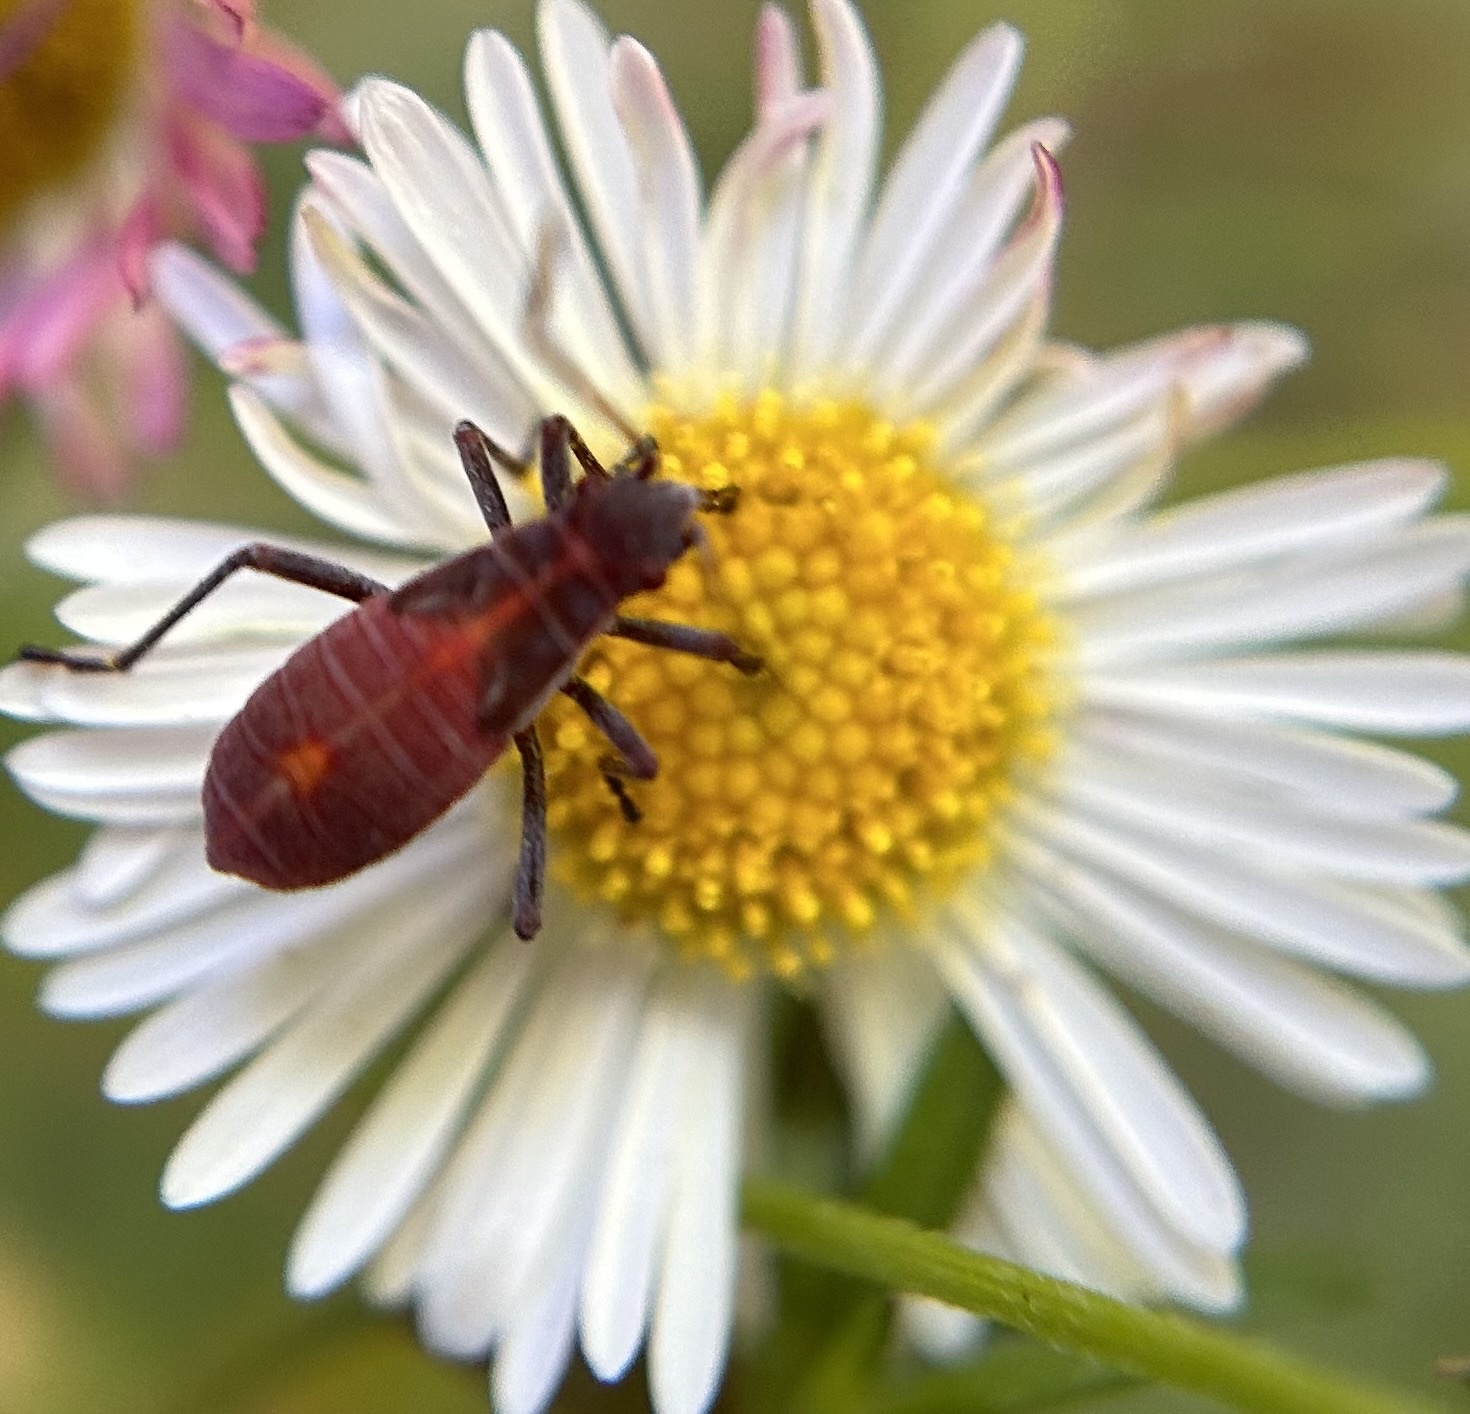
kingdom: Animalia
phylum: Arthropoda
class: Insecta
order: Hemiptera
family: Rhopalidae
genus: Boisea
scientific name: Boisea rubrolineata
